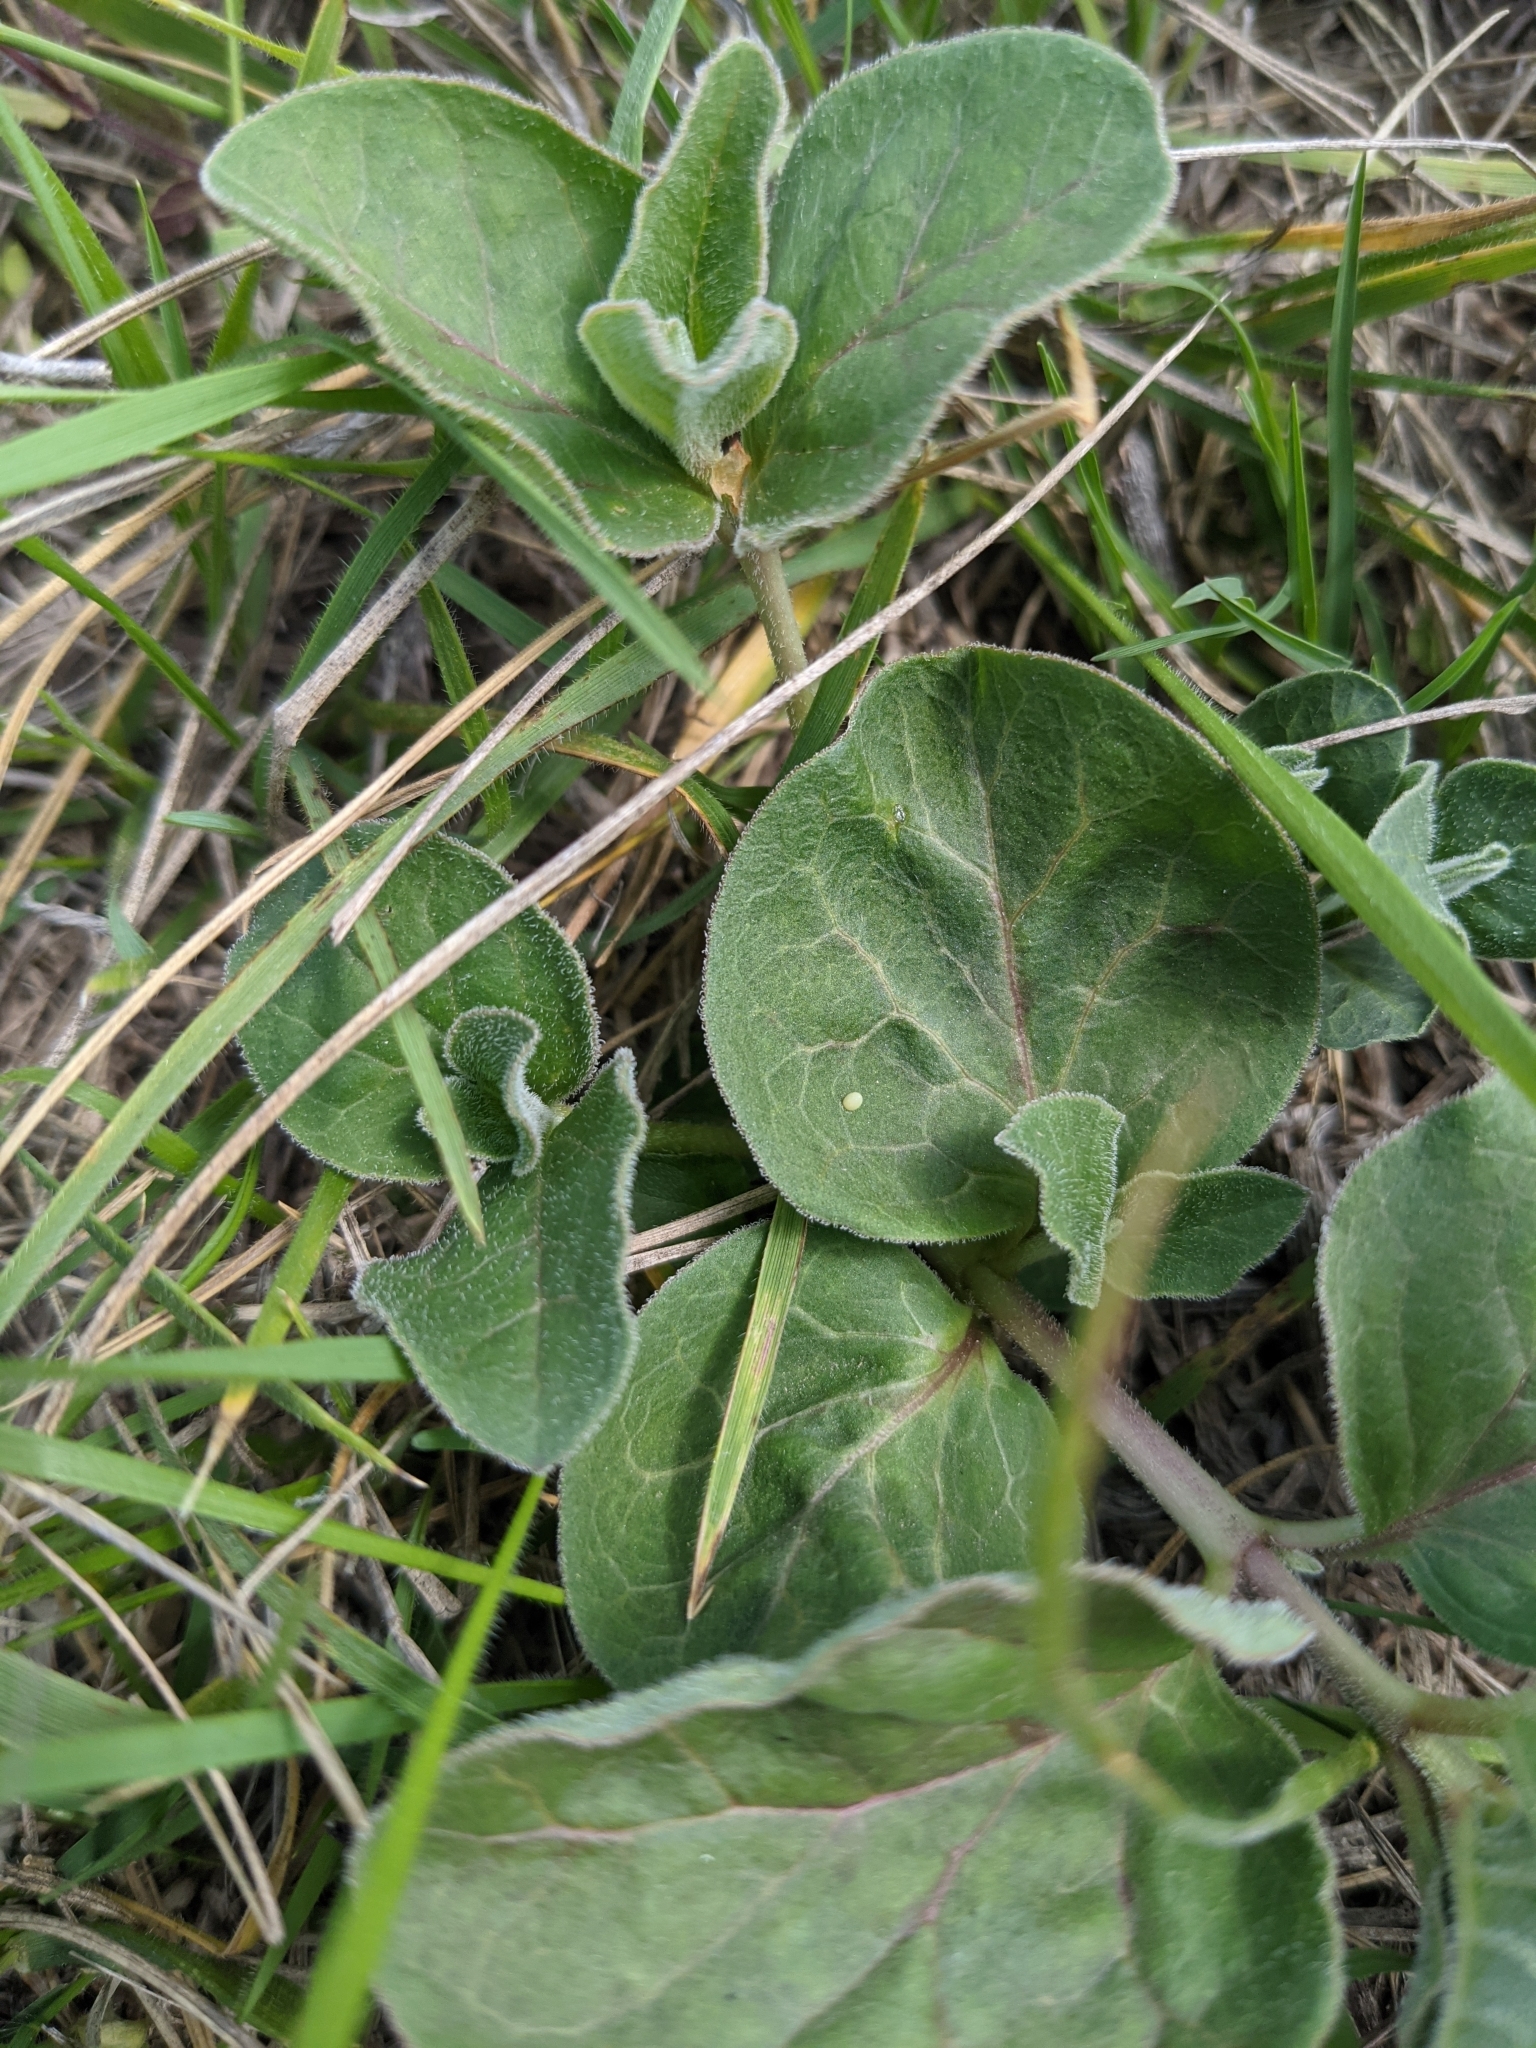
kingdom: Animalia
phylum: Arthropoda
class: Insecta
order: Lepidoptera
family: Nymphalidae
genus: Danaus
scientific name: Danaus plexippus
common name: Monarch
